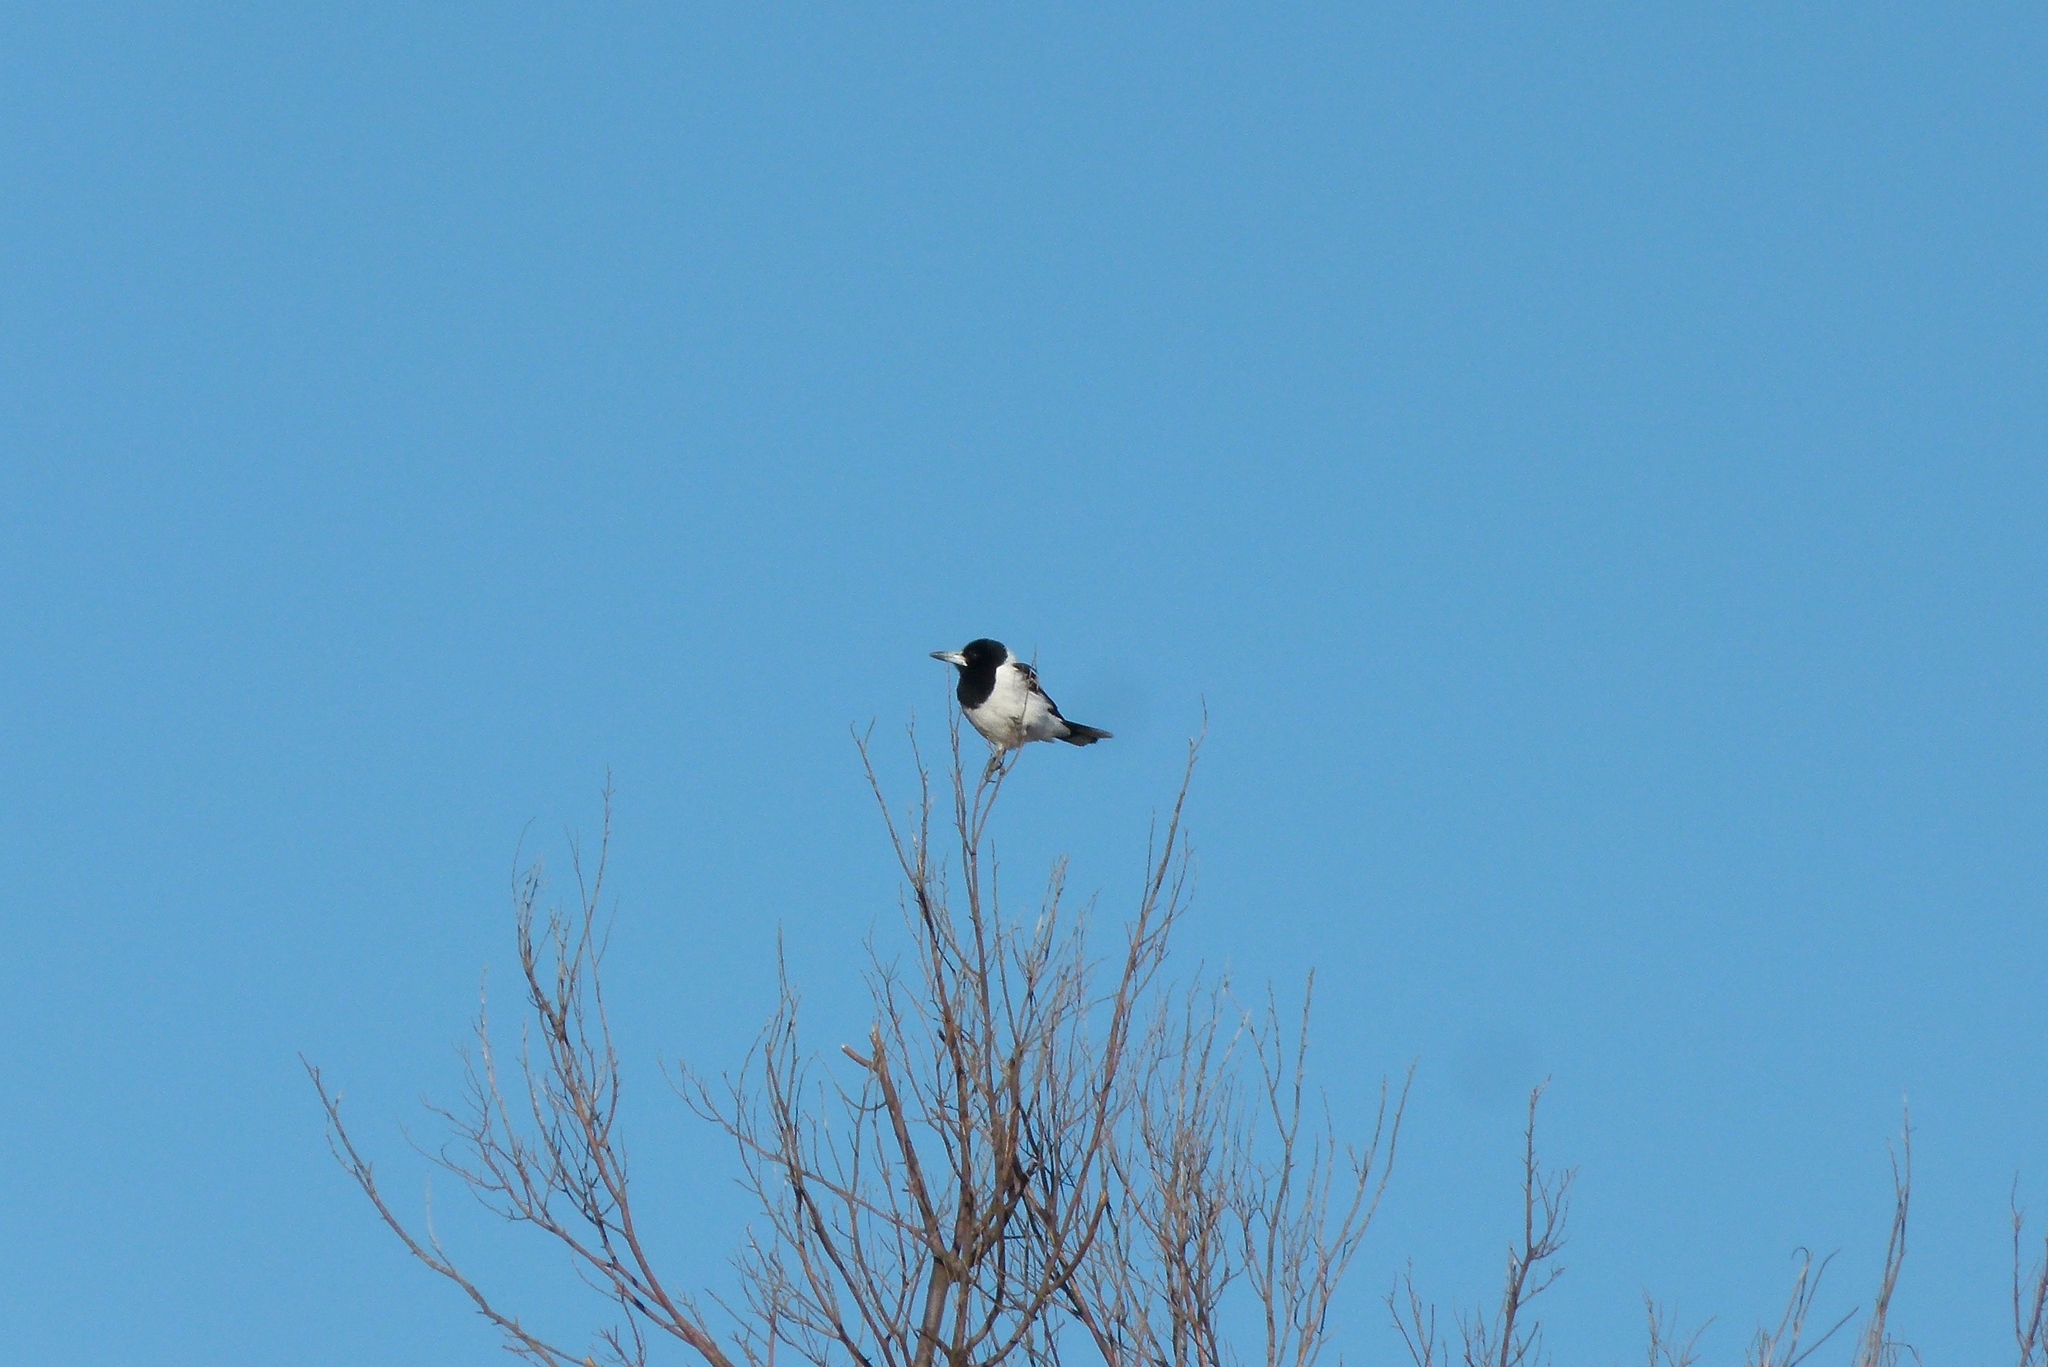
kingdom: Animalia
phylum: Chordata
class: Aves
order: Passeriformes
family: Cracticidae
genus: Cracticus
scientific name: Cracticus nigrogularis
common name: Pied butcherbird
